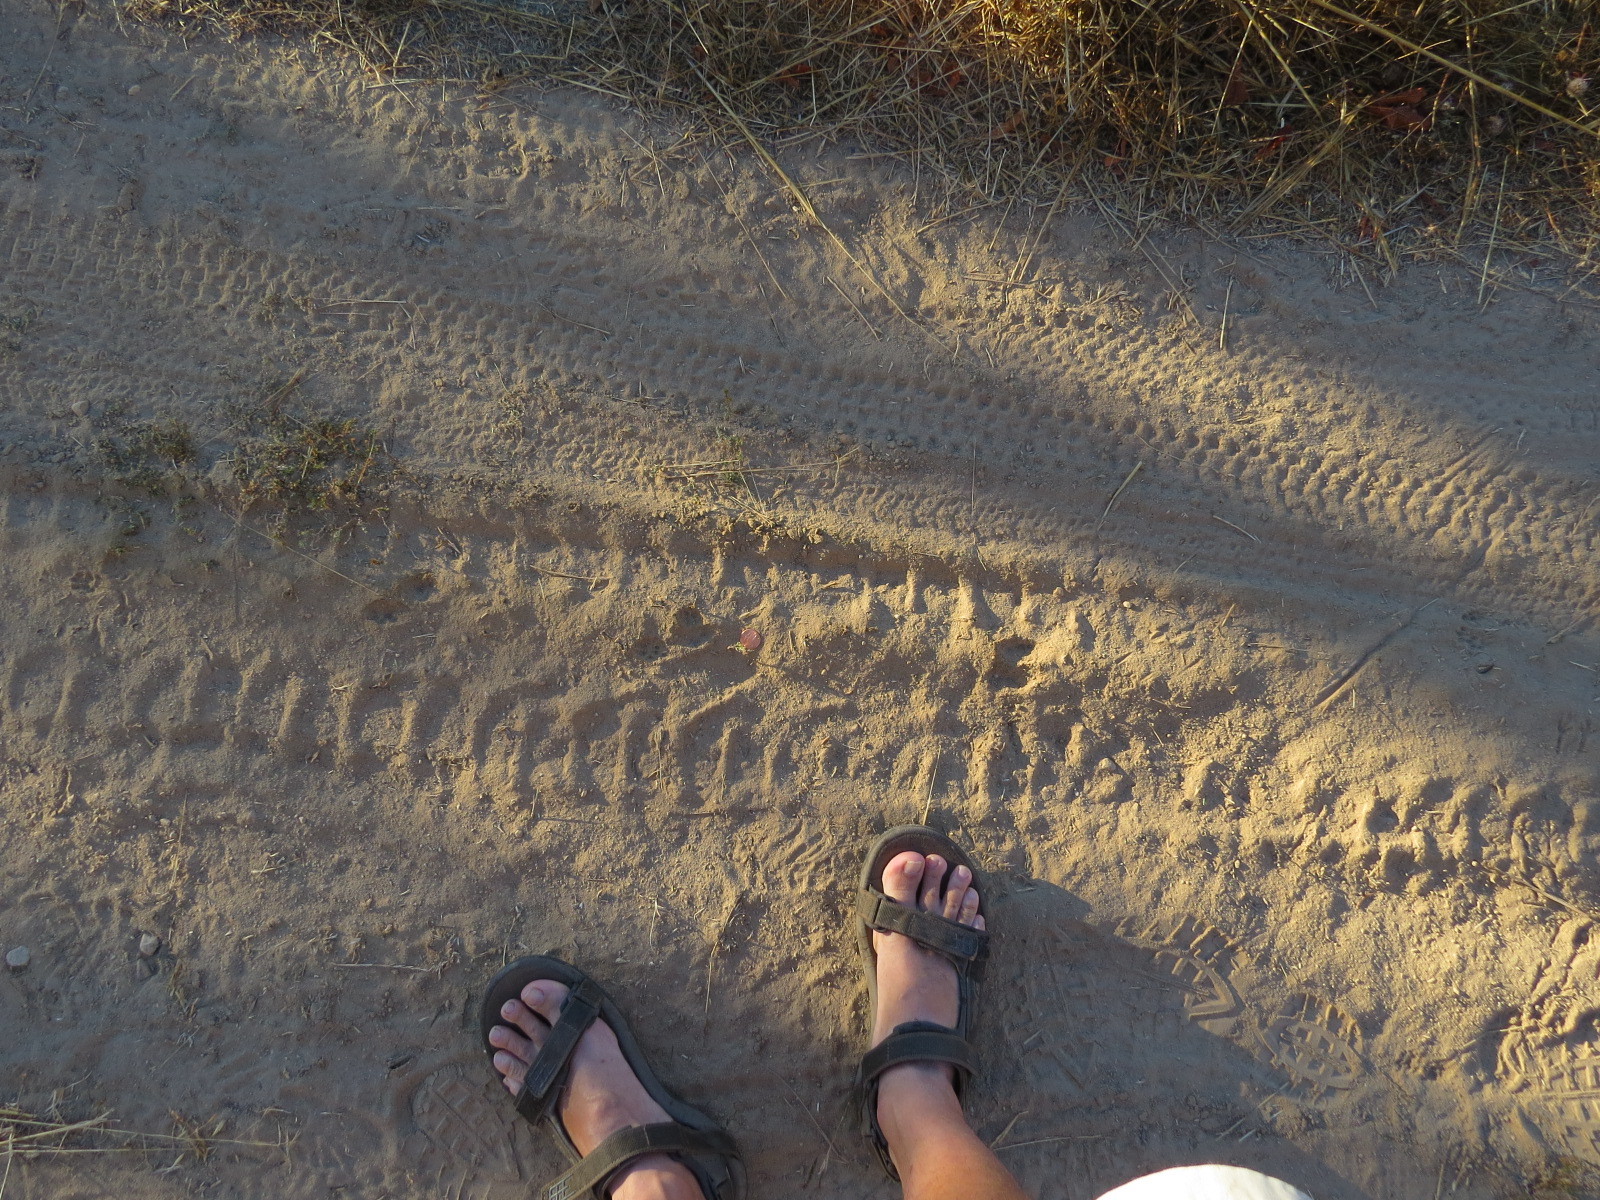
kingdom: Animalia
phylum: Chordata
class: Mammalia
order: Carnivora
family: Mustelidae
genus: Mustela
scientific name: Mustela
